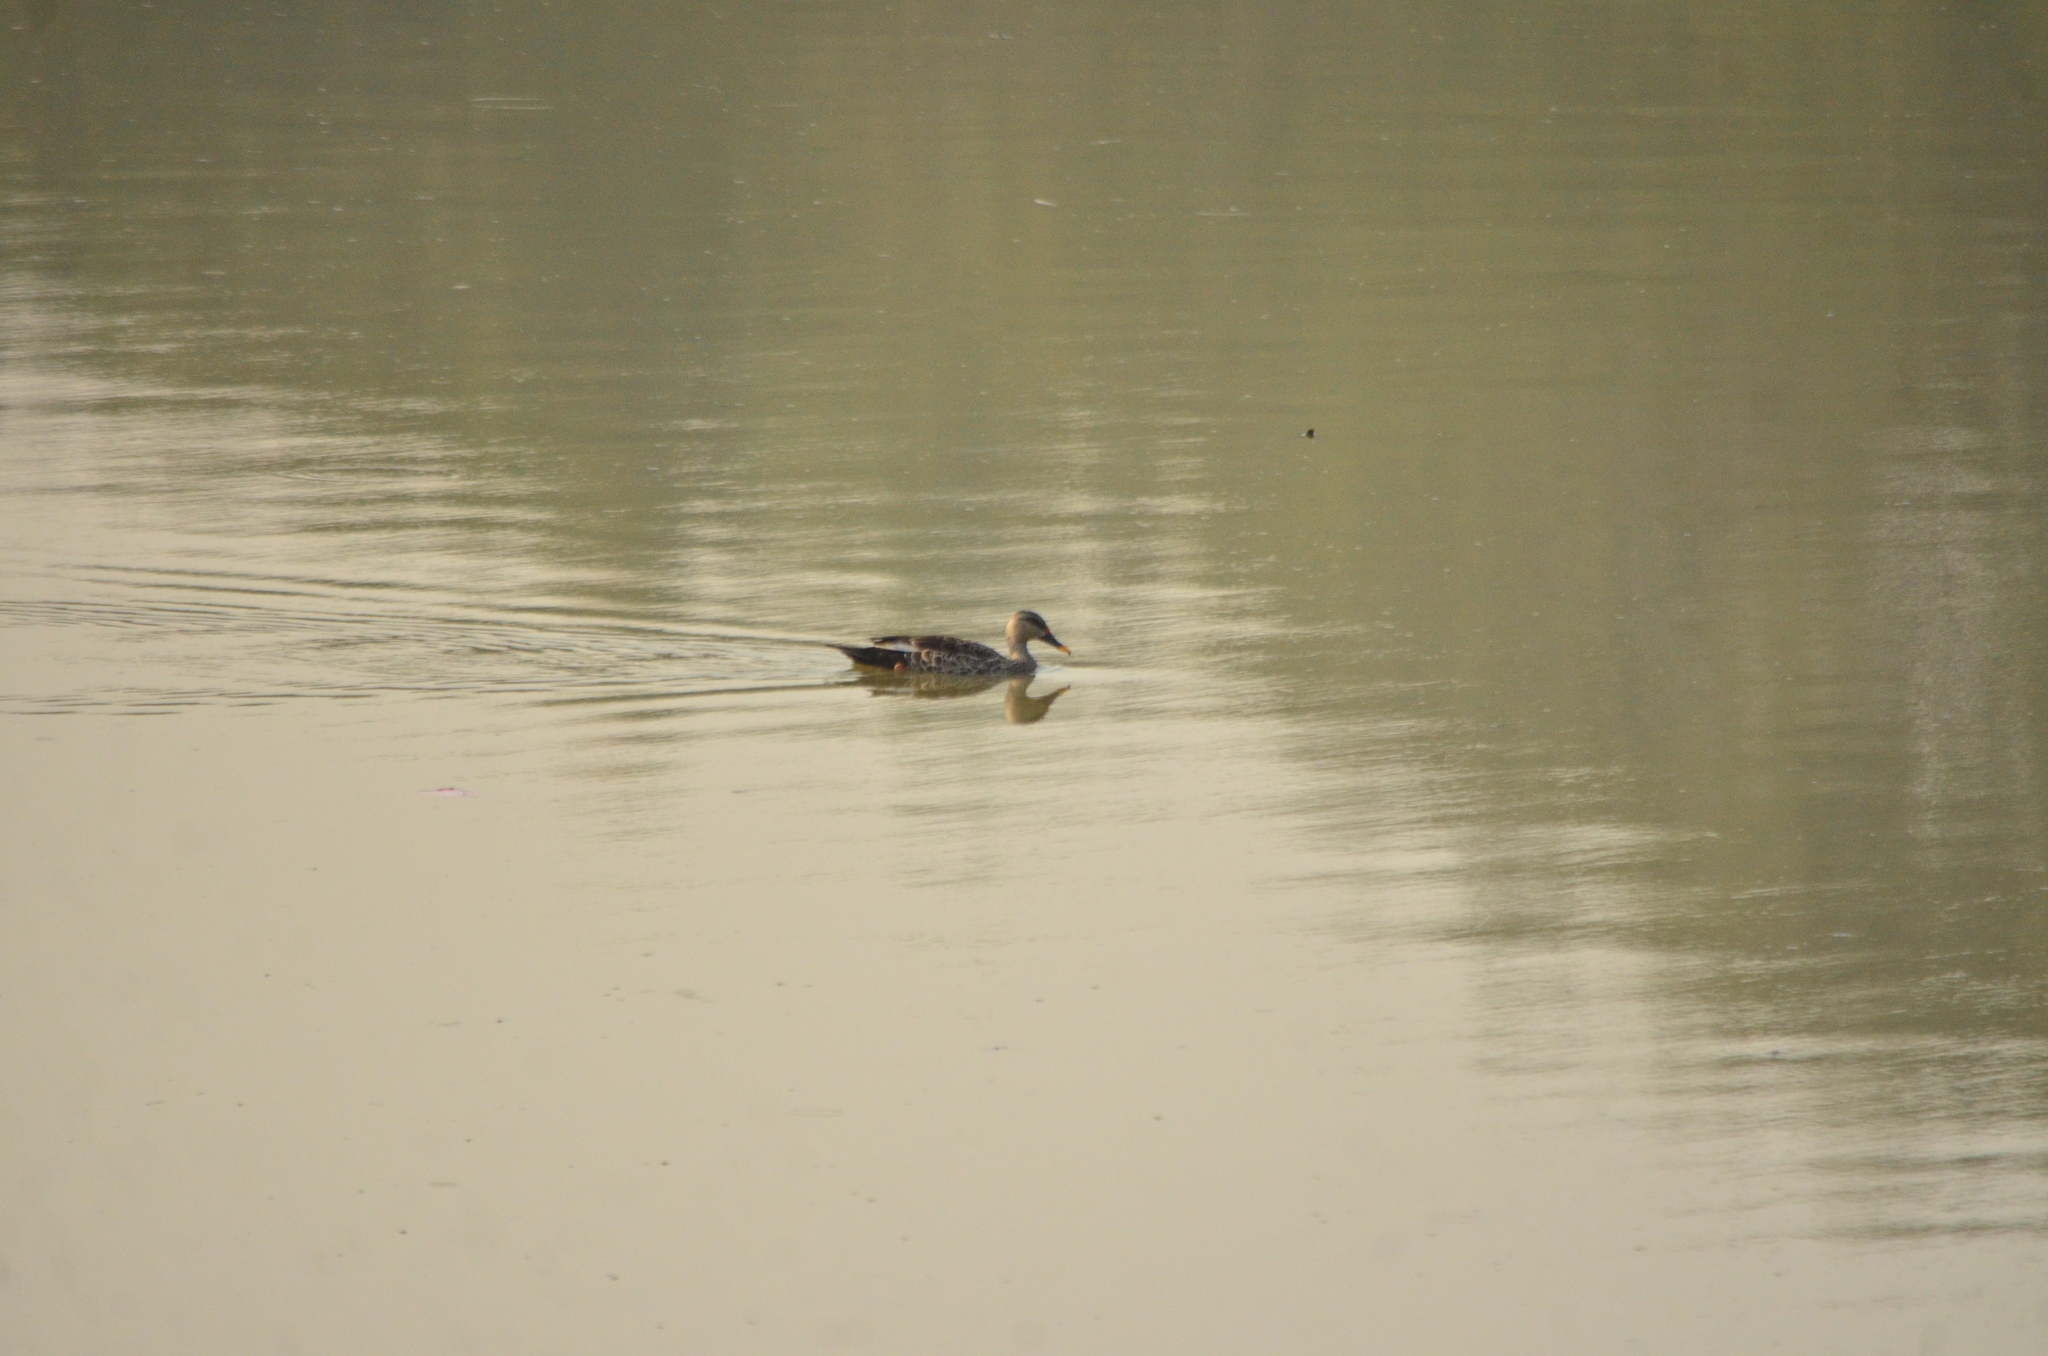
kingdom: Animalia
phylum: Chordata
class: Aves
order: Anseriformes
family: Anatidae
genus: Anas
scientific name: Anas poecilorhyncha
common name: Indian spot-billed duck
